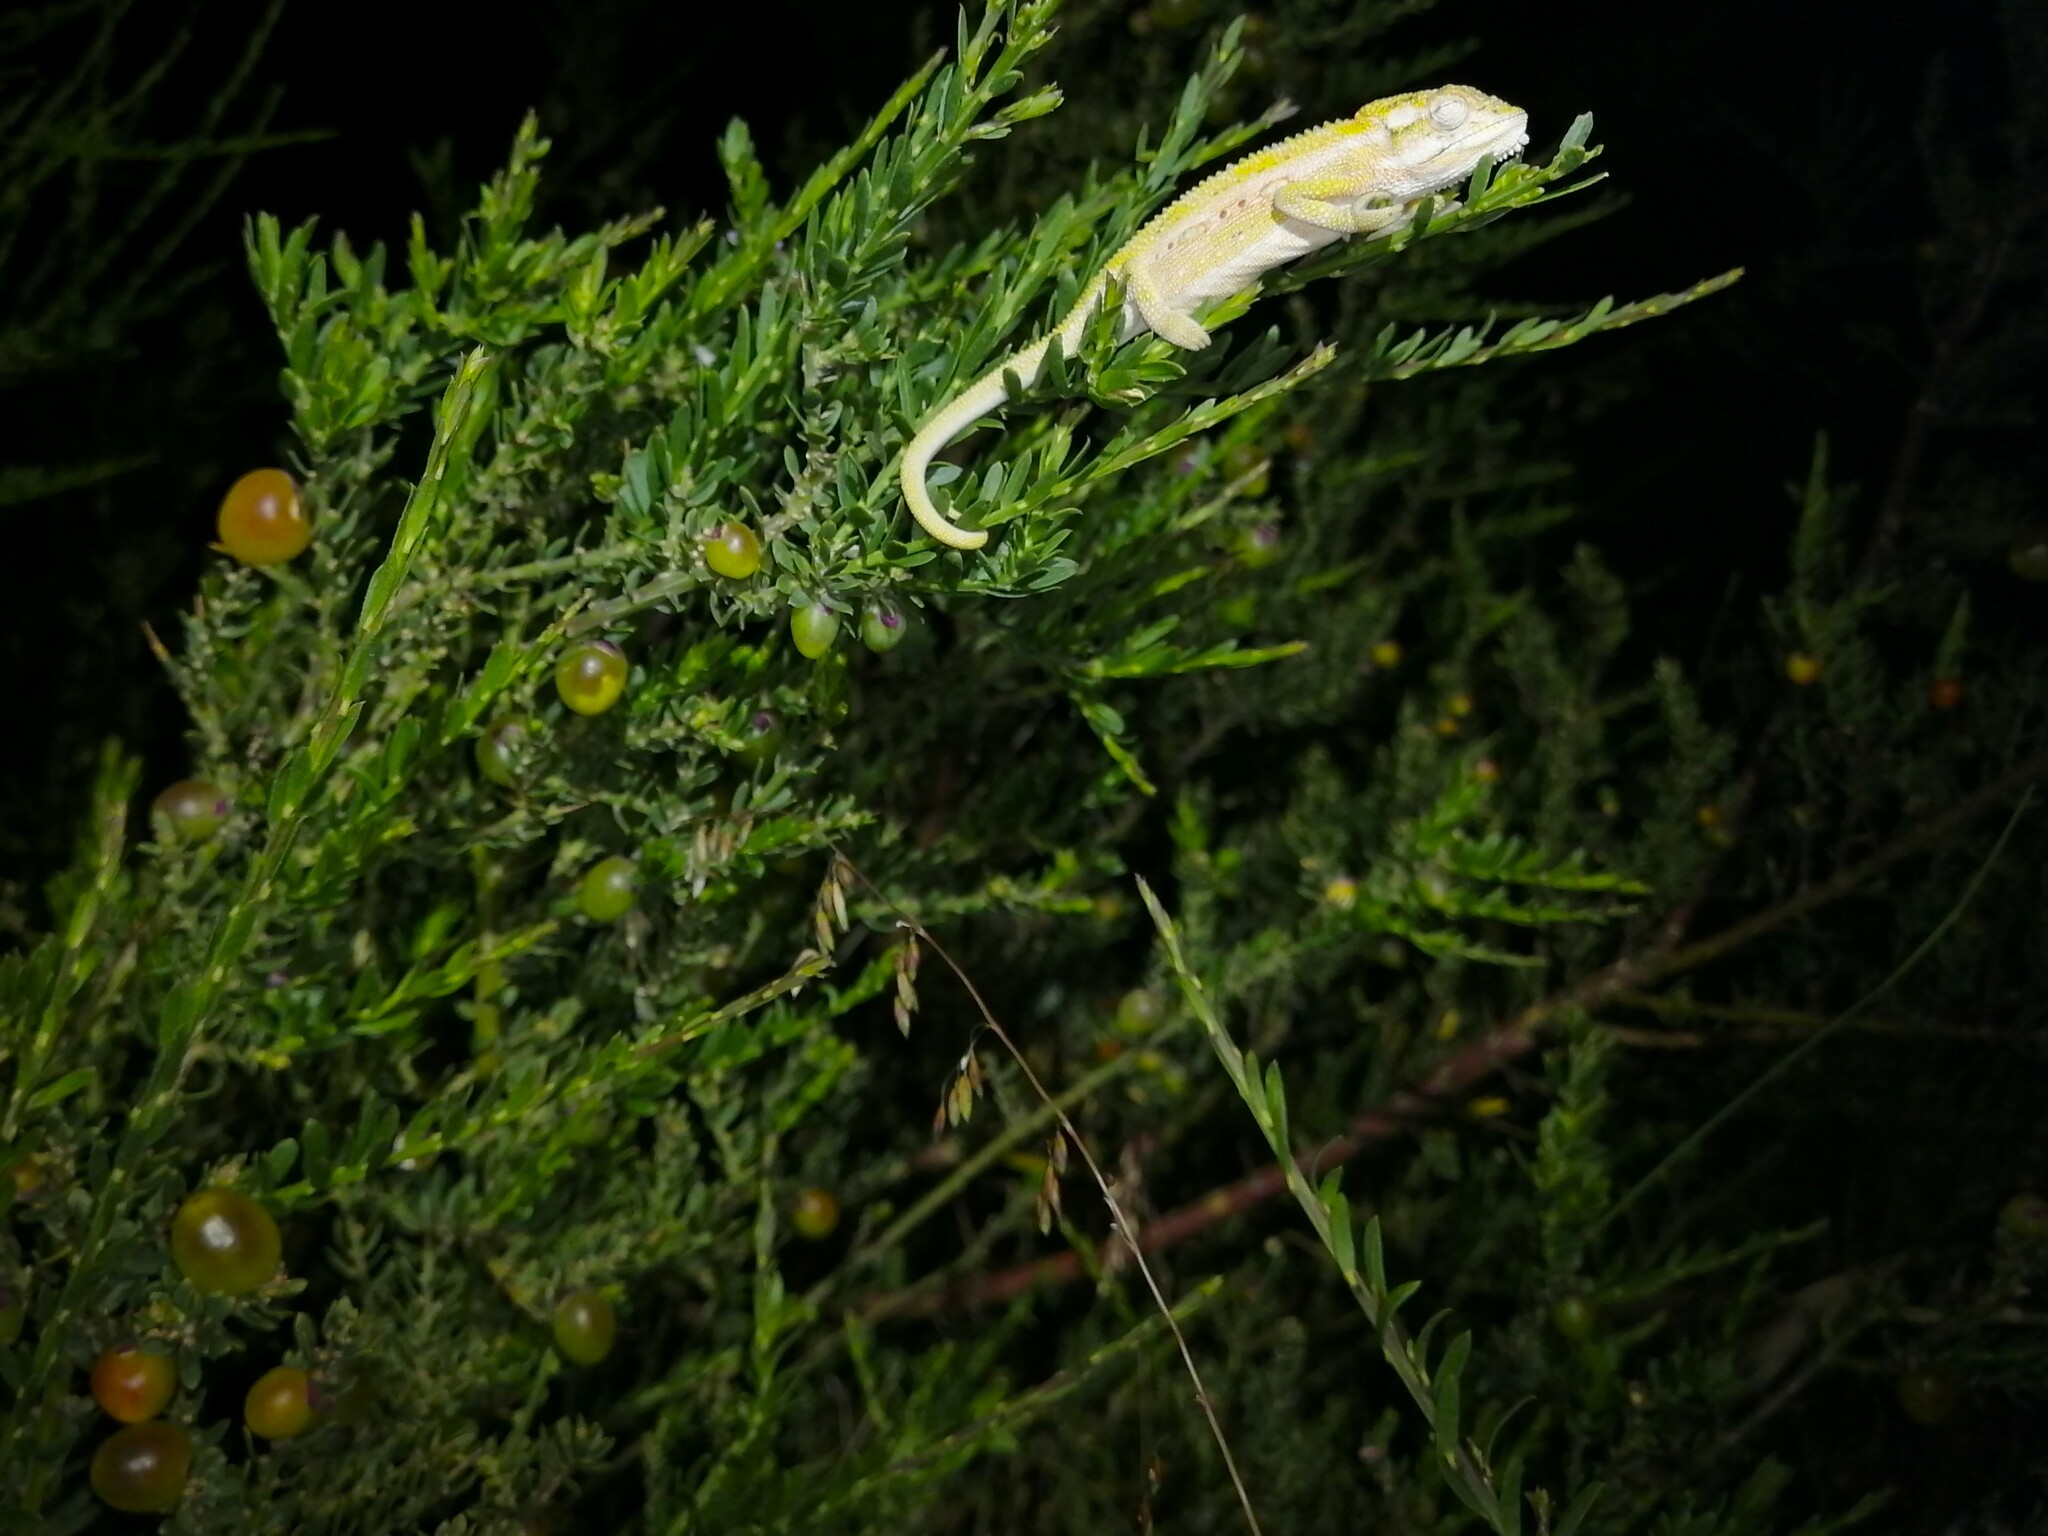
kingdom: Animalia
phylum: Chordata
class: Squamata
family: Chamaeleonidae
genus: Bradypodion
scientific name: Bradypodion pumilum
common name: Cape dwarf chameleon
